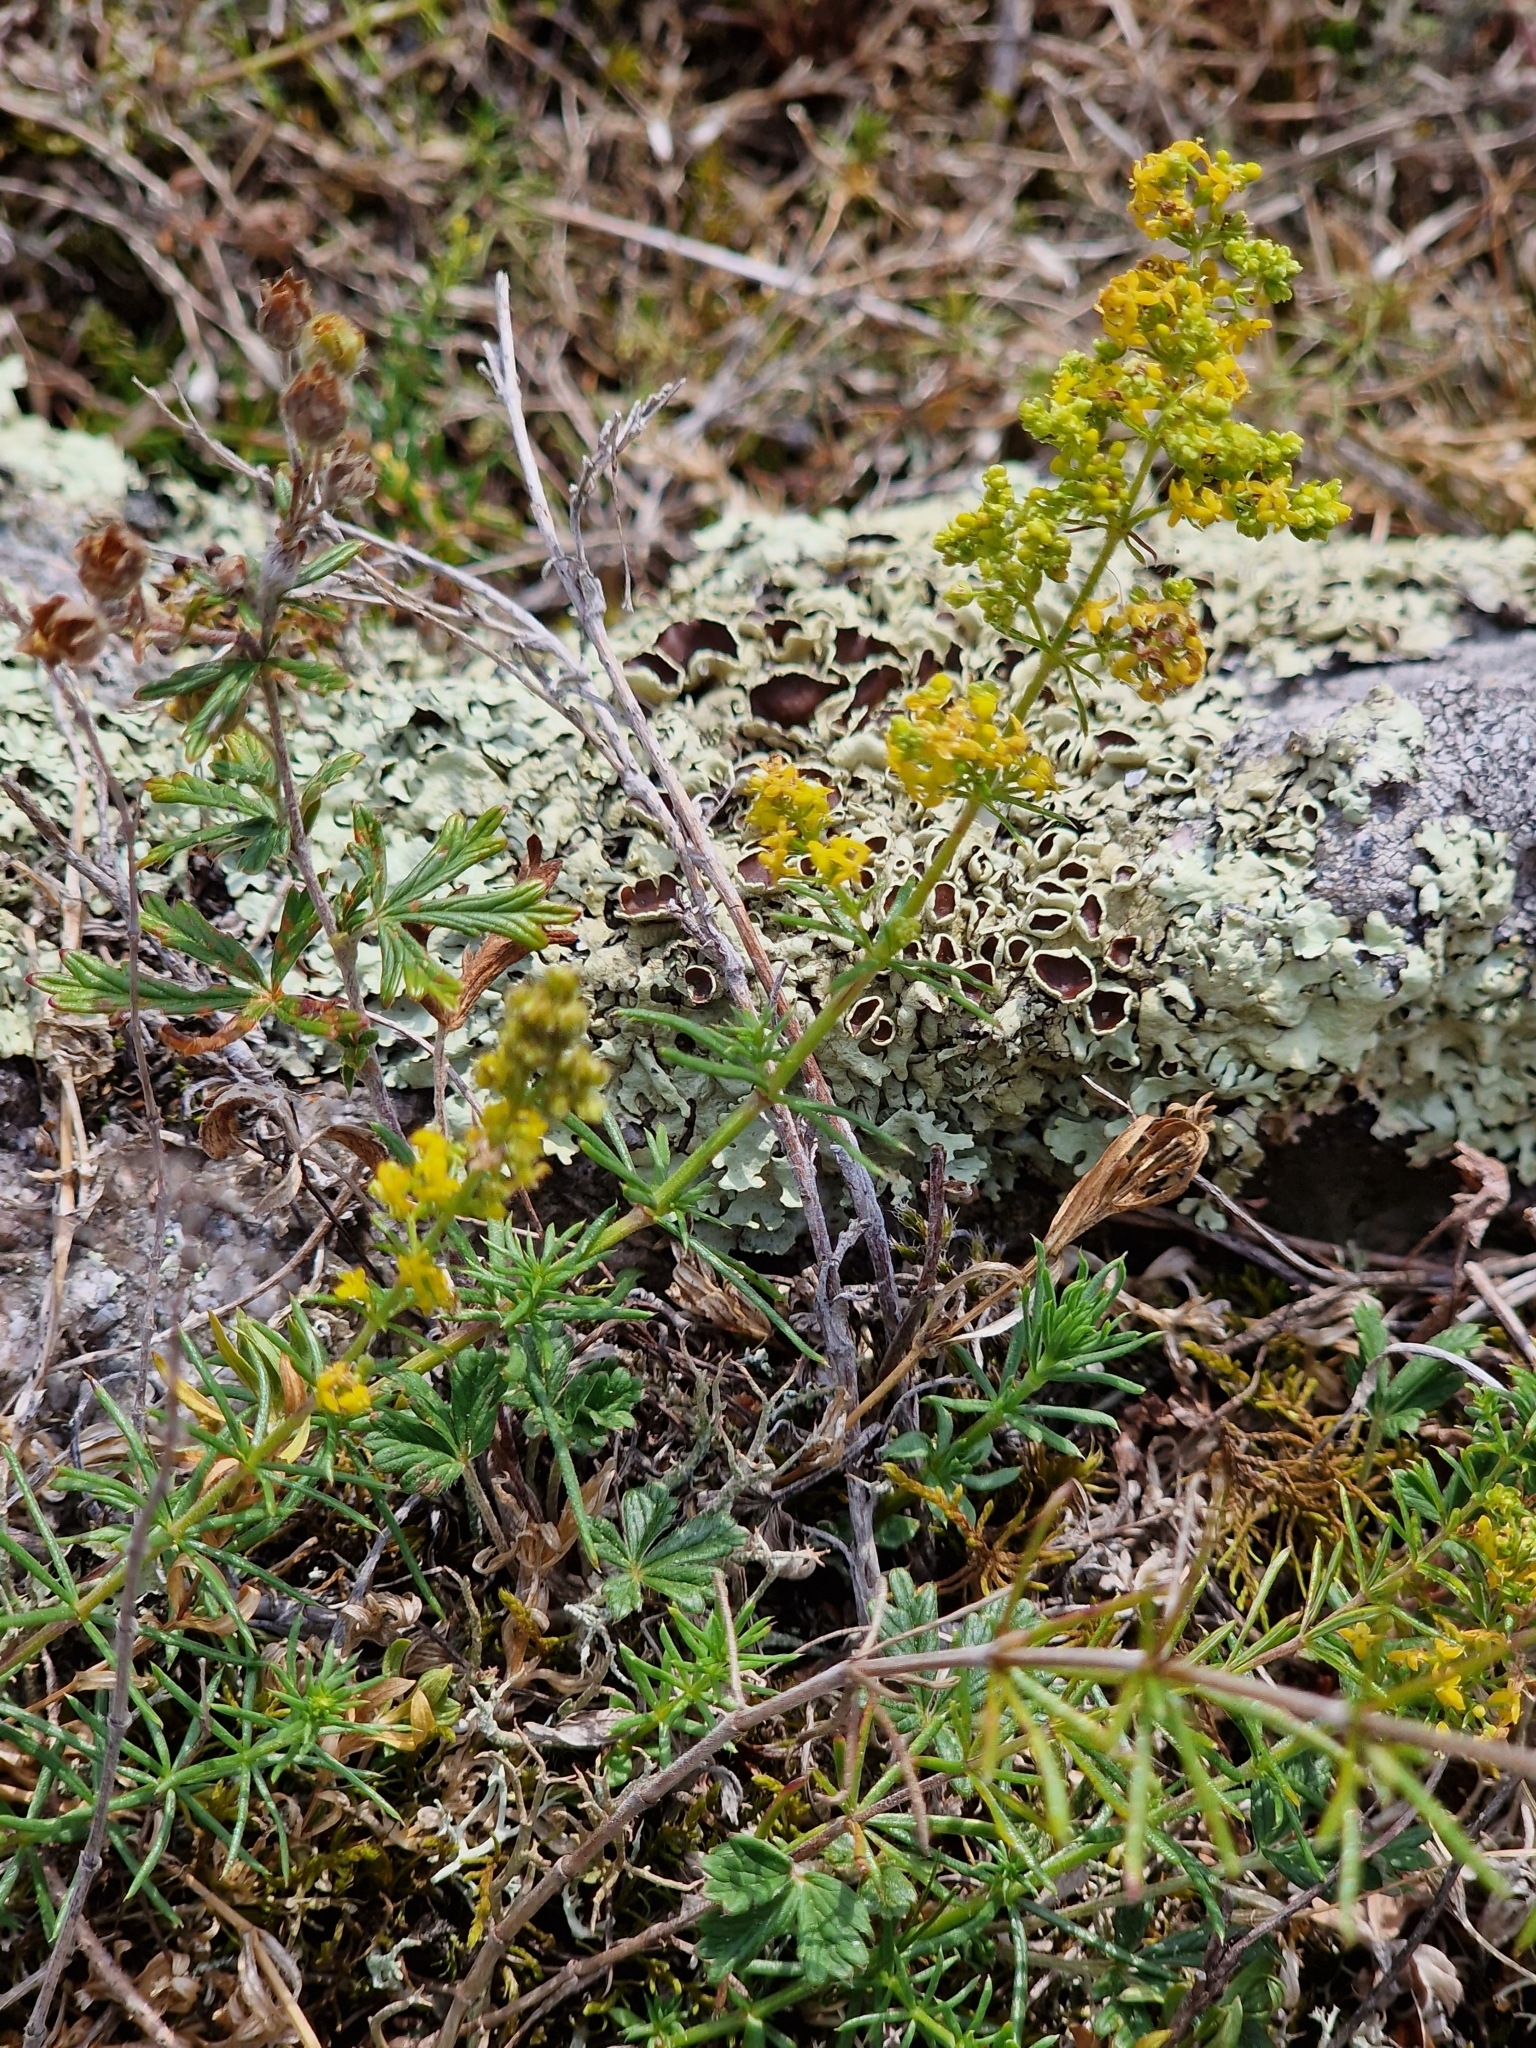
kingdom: Plantae
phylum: Tracheophyta
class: Magnoliopsida
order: Gentianales
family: Rubiaceae
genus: Galium
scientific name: Galium verum
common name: Lady's bedstraw
